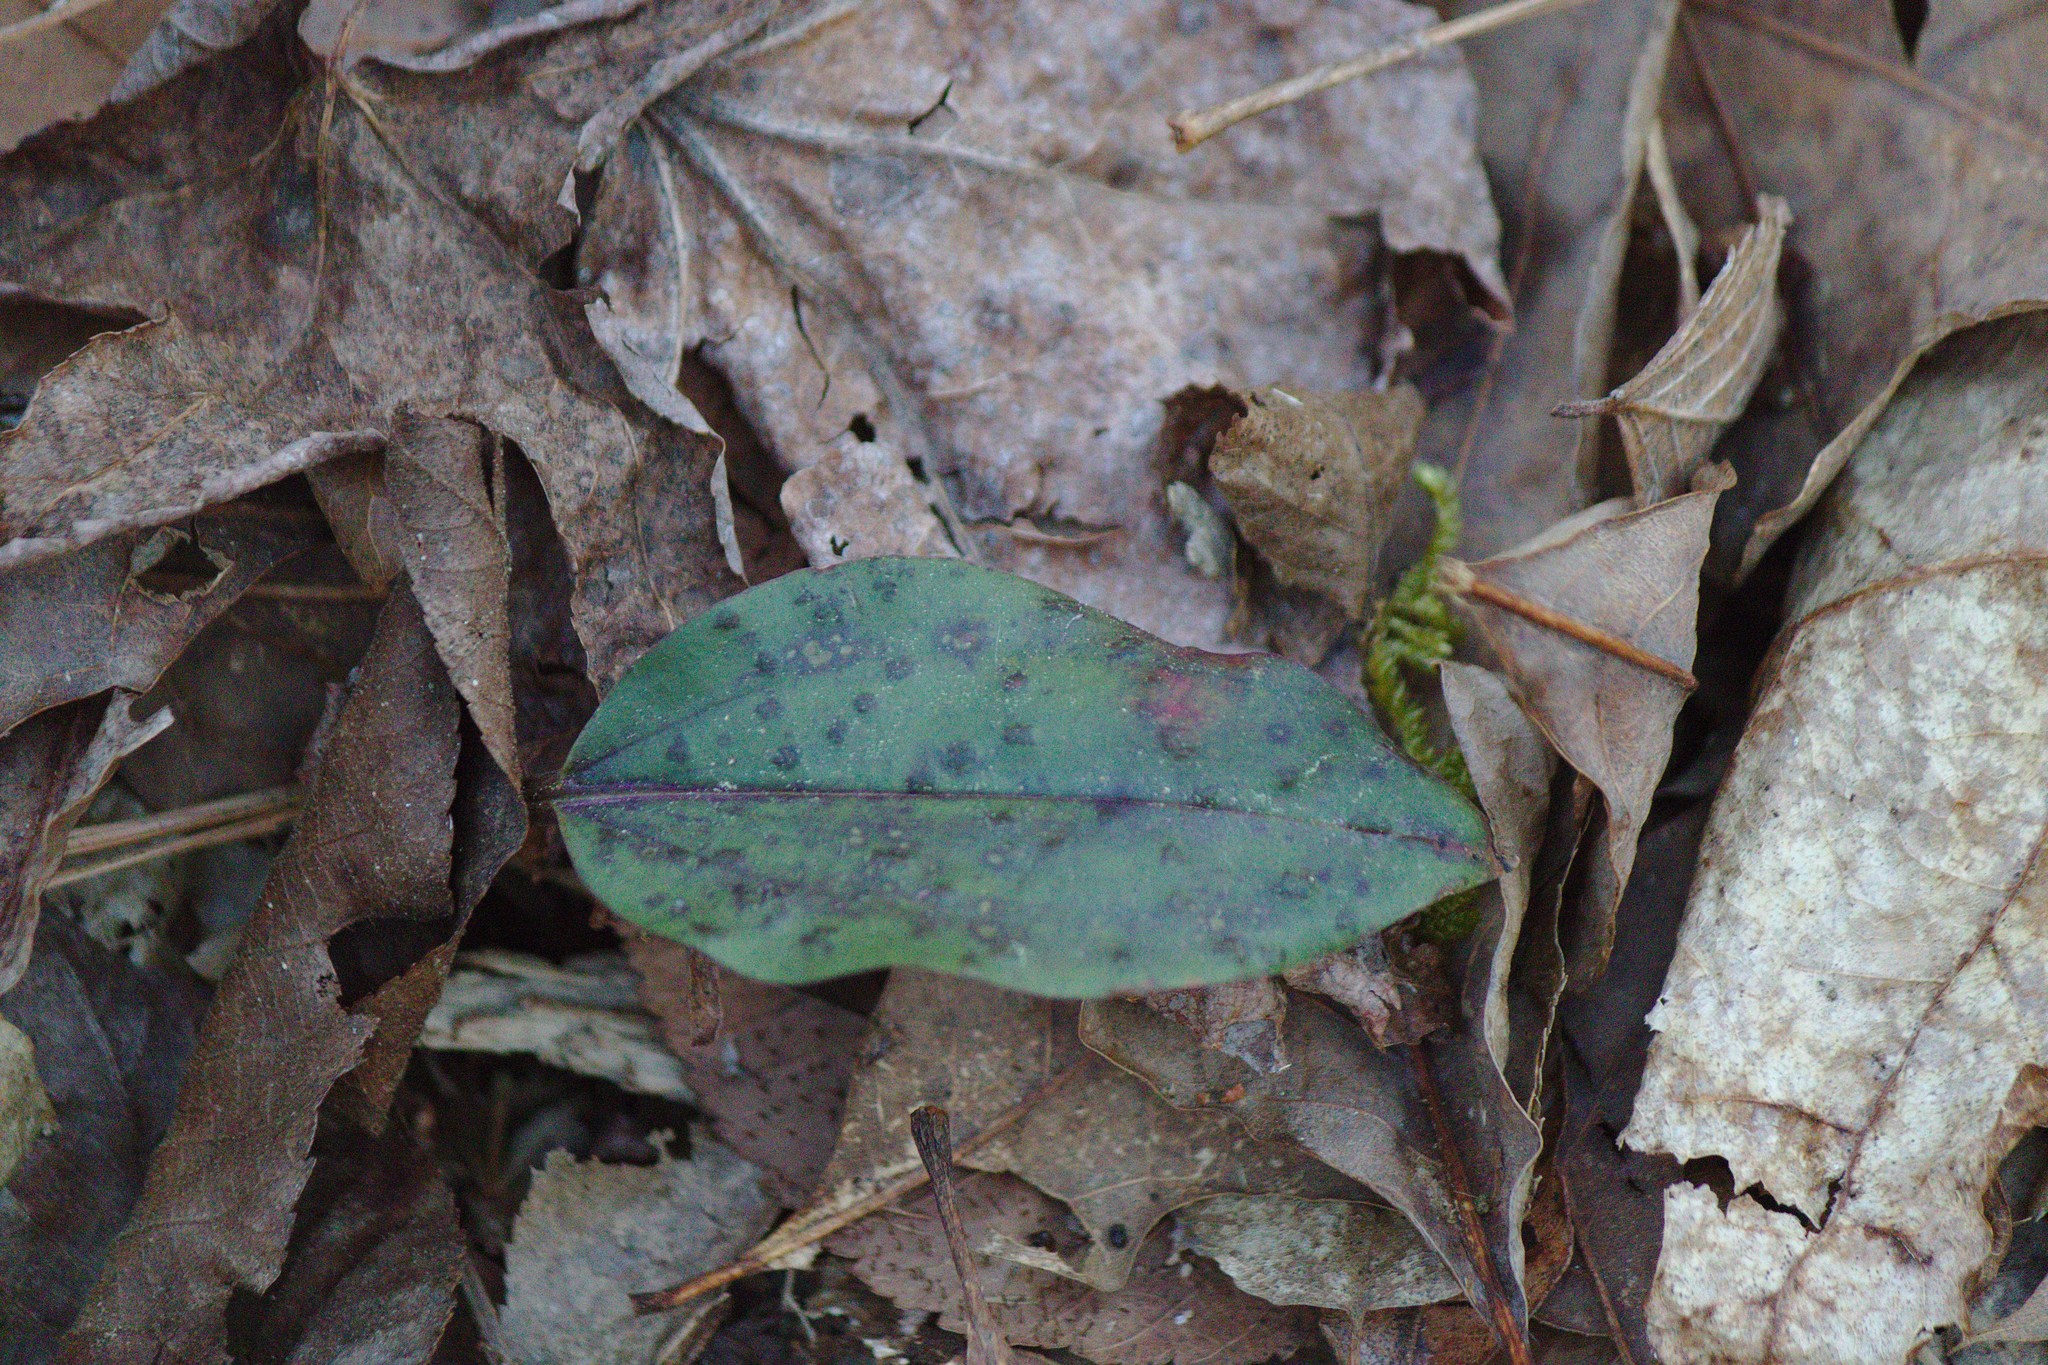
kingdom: Plantae
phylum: Tracheophyta
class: Liliopsida
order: Asparagales
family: Orchidaceae
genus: Tipularia
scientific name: Tipularia discolor
